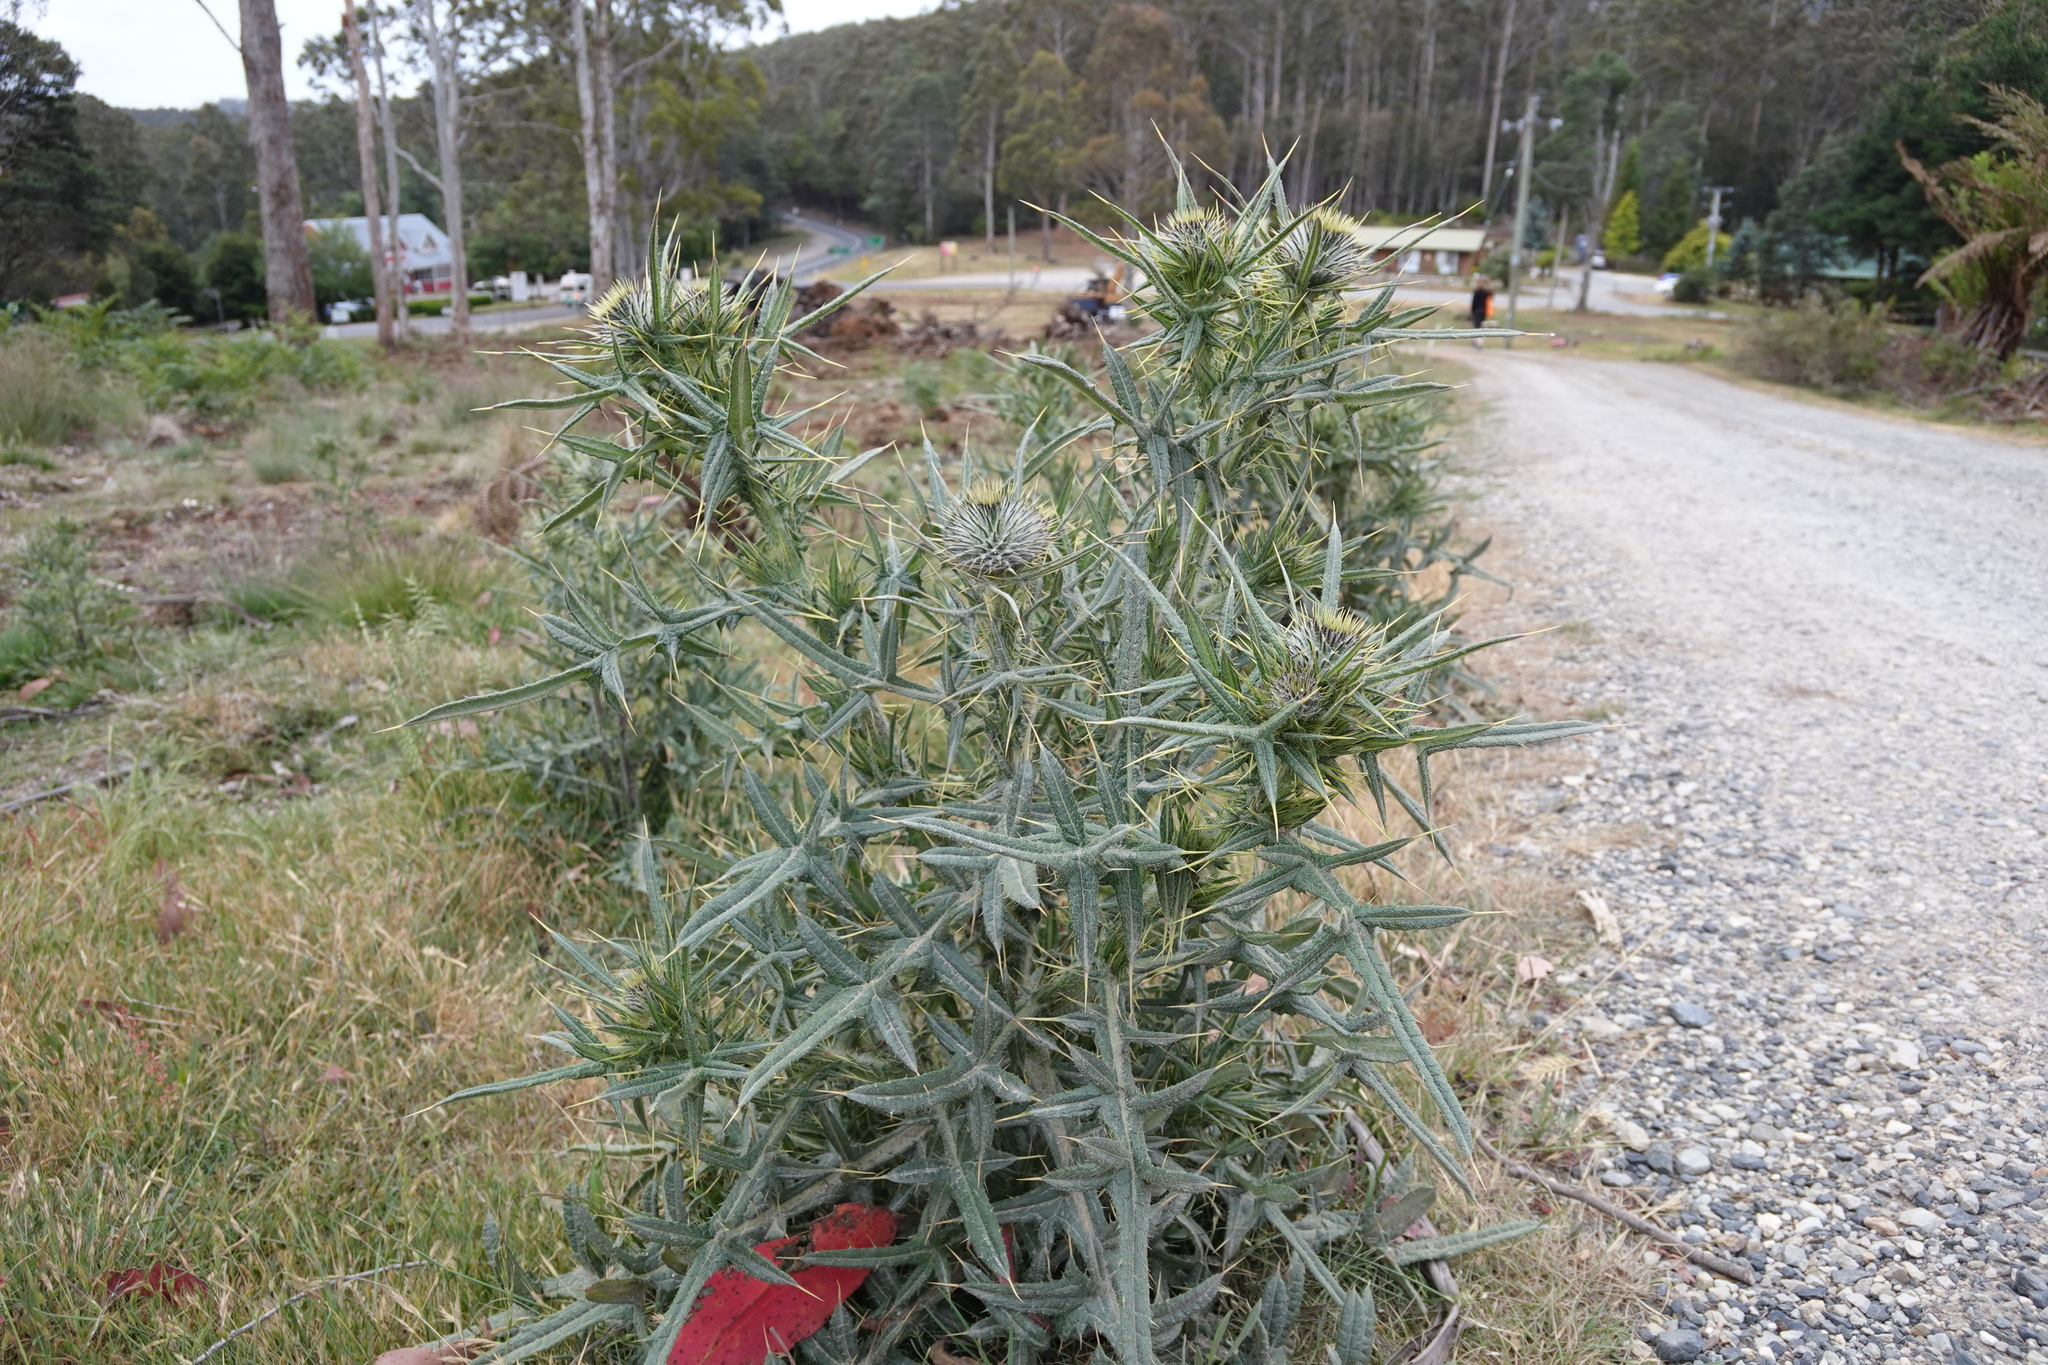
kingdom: Plantae
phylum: Tracheophyta
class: Magnoliopsida
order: Asterales
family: Asteraceae
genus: Cirsium
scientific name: Cirsium vulgare
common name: Bull thistle
